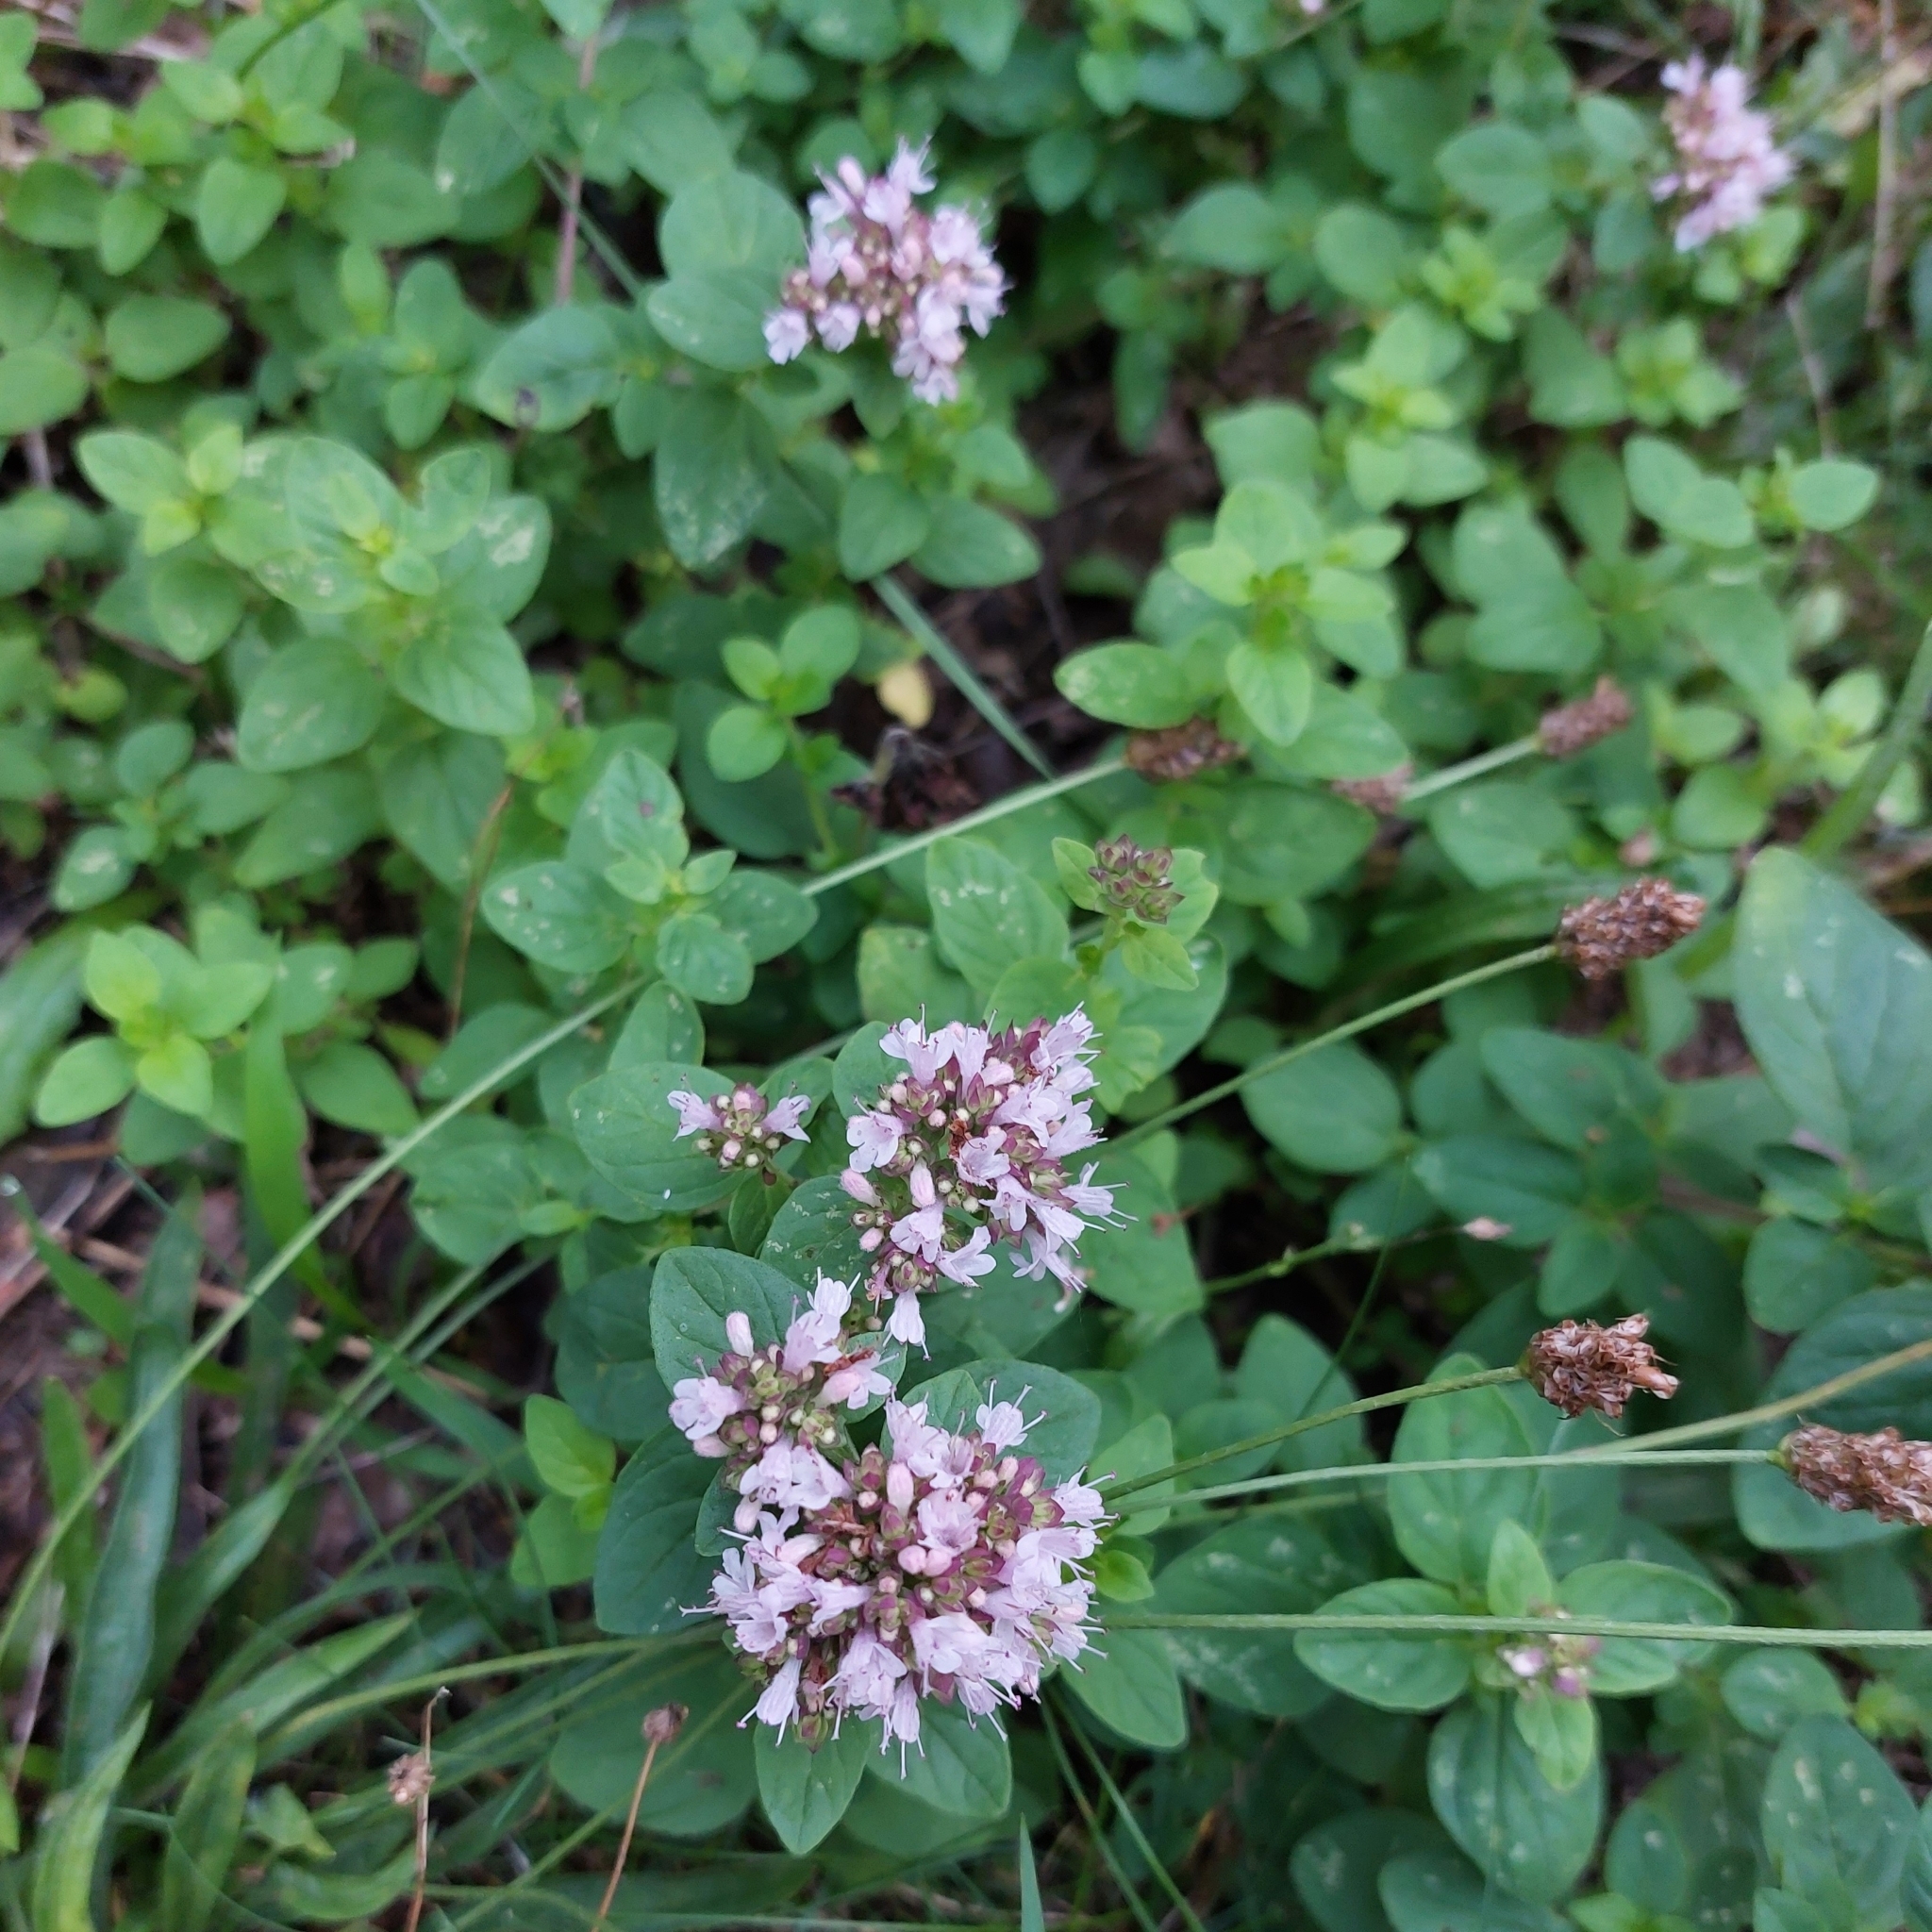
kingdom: Plantae
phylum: Tracheophyta
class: Magnoliopsida
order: Lamiales
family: Lamiaceae
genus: Origanum
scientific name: Origanum vulgare
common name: Wild marjoram
